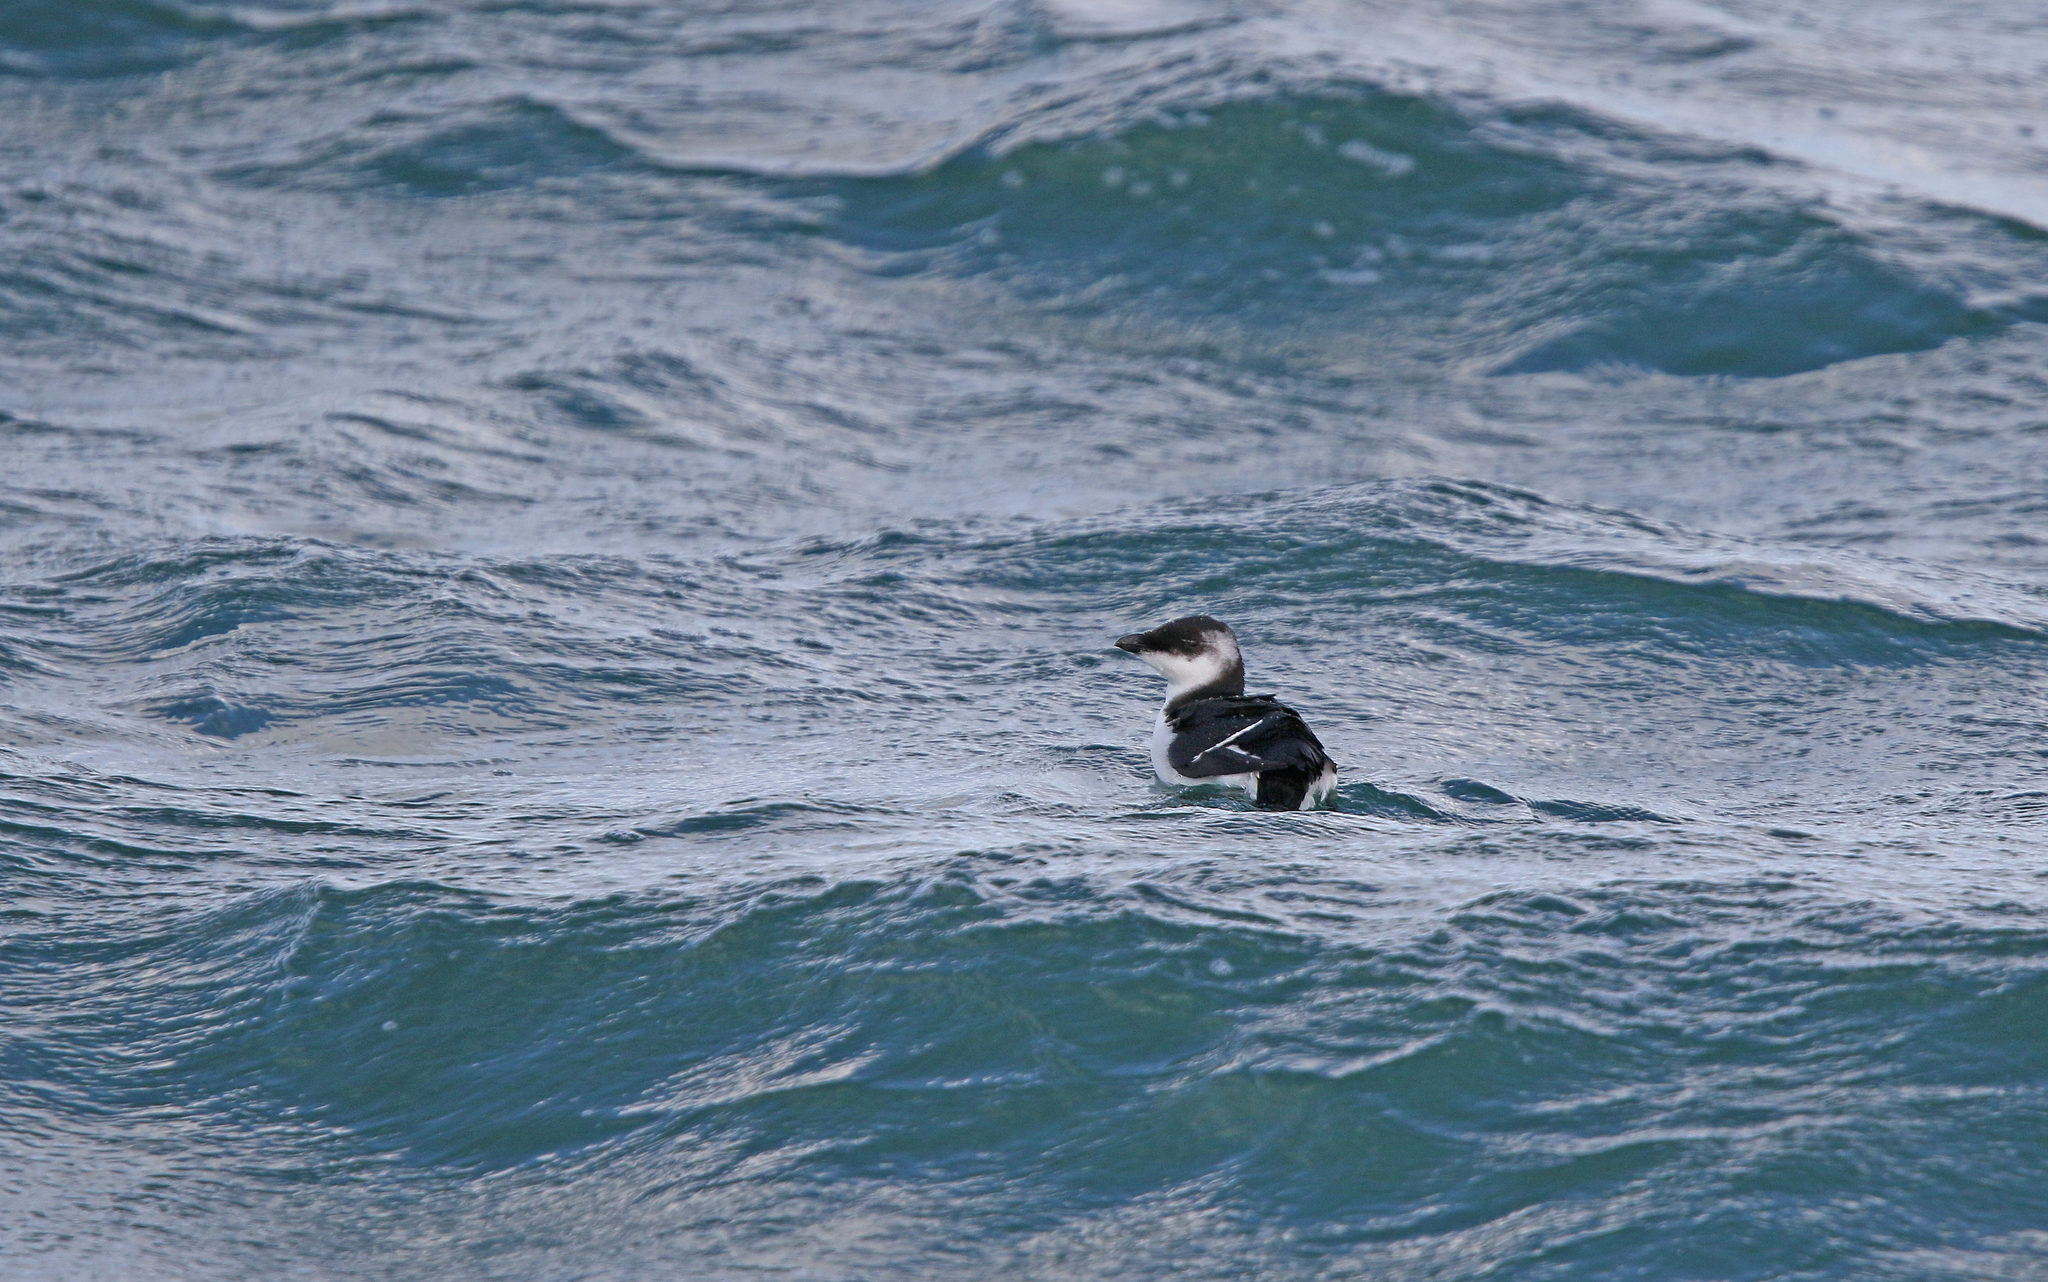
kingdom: Animalia
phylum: Chordata
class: Aves
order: Charadriiformes
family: Alcidae
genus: Alca
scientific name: Alca torda
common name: Razorbill
